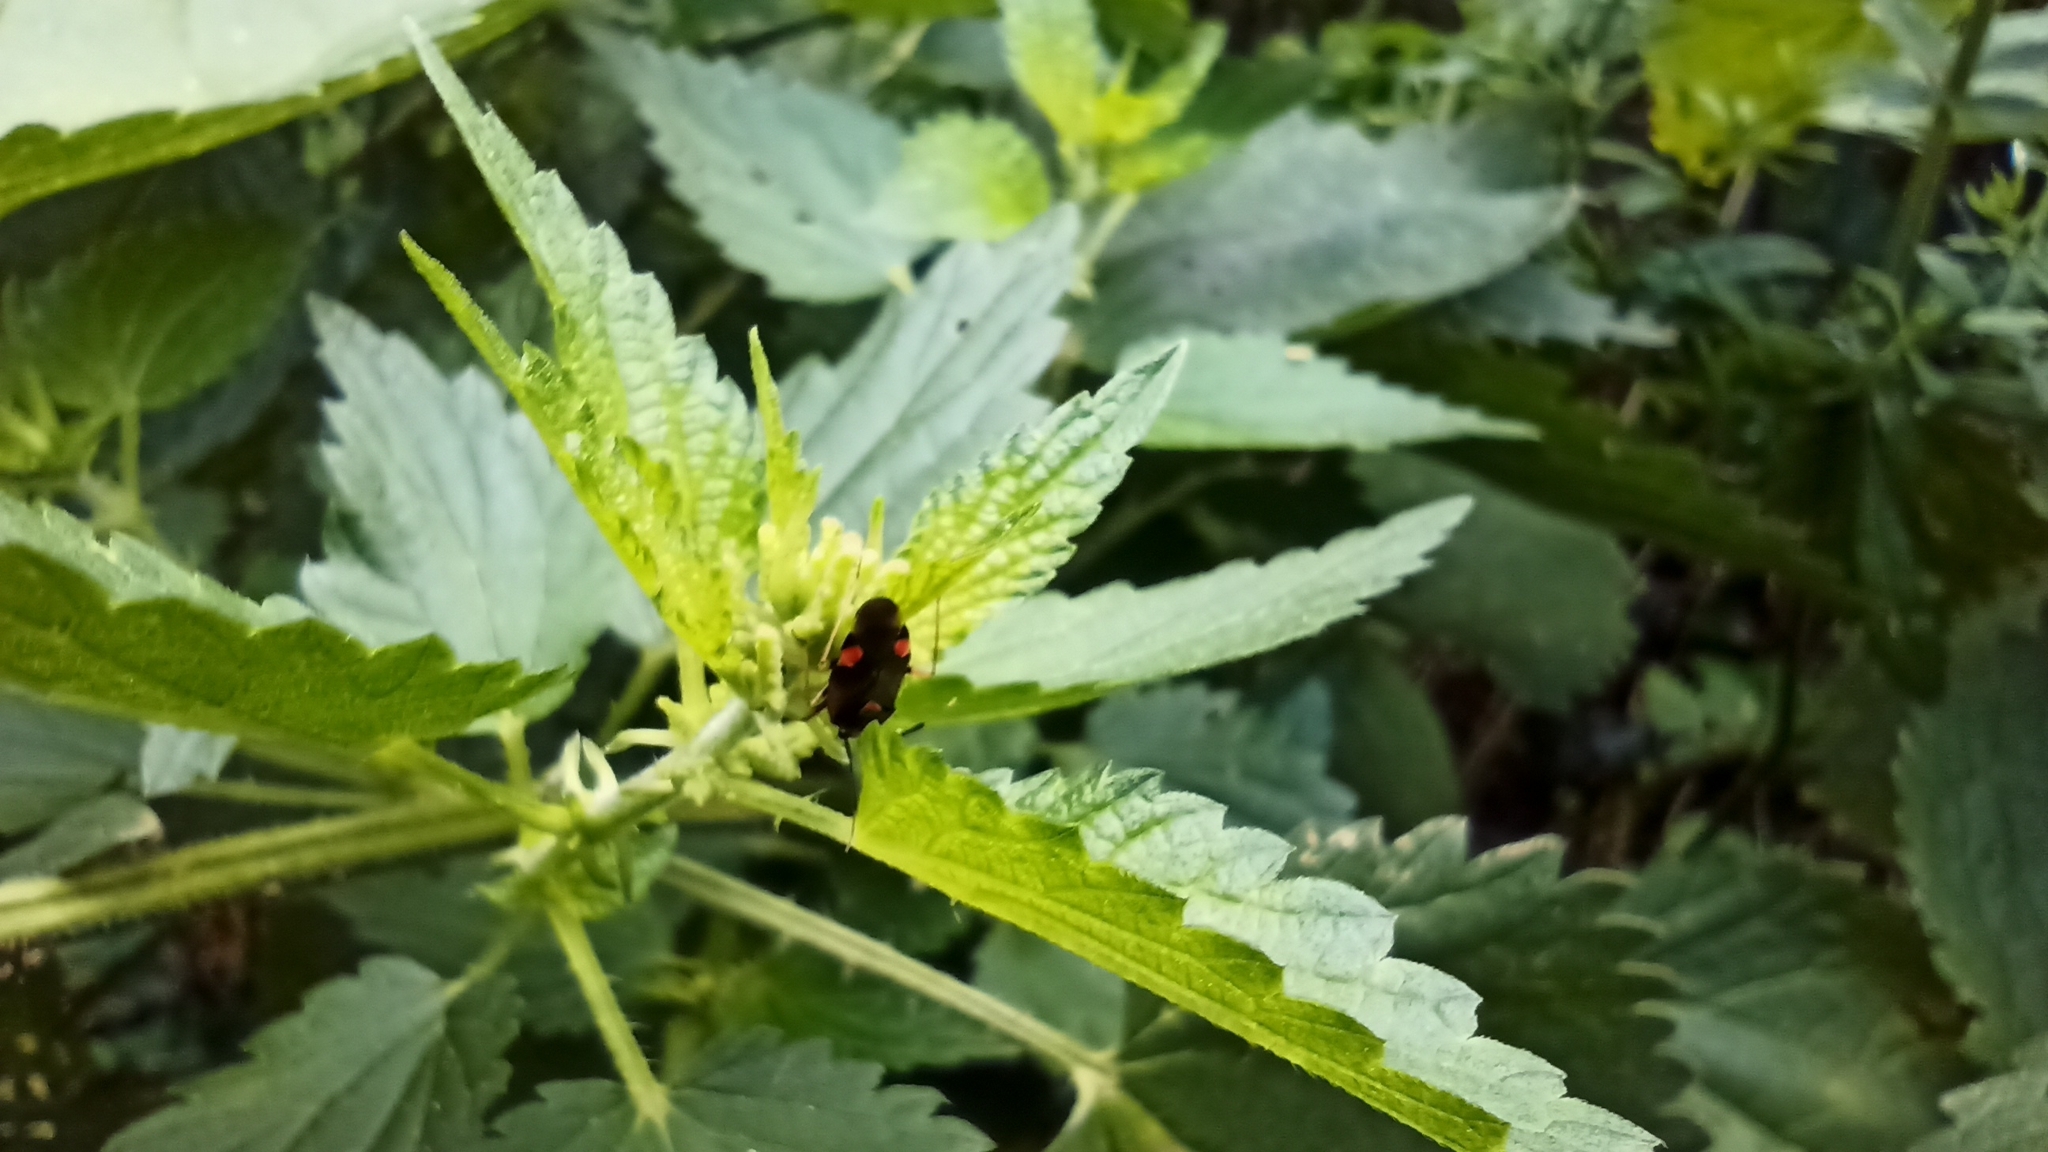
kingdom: Animalia
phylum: Arthropoda
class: Insecta
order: Hemiptera
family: Miridae
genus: Deraeocoris
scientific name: Deraeocoris ruber
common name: Plant bug
